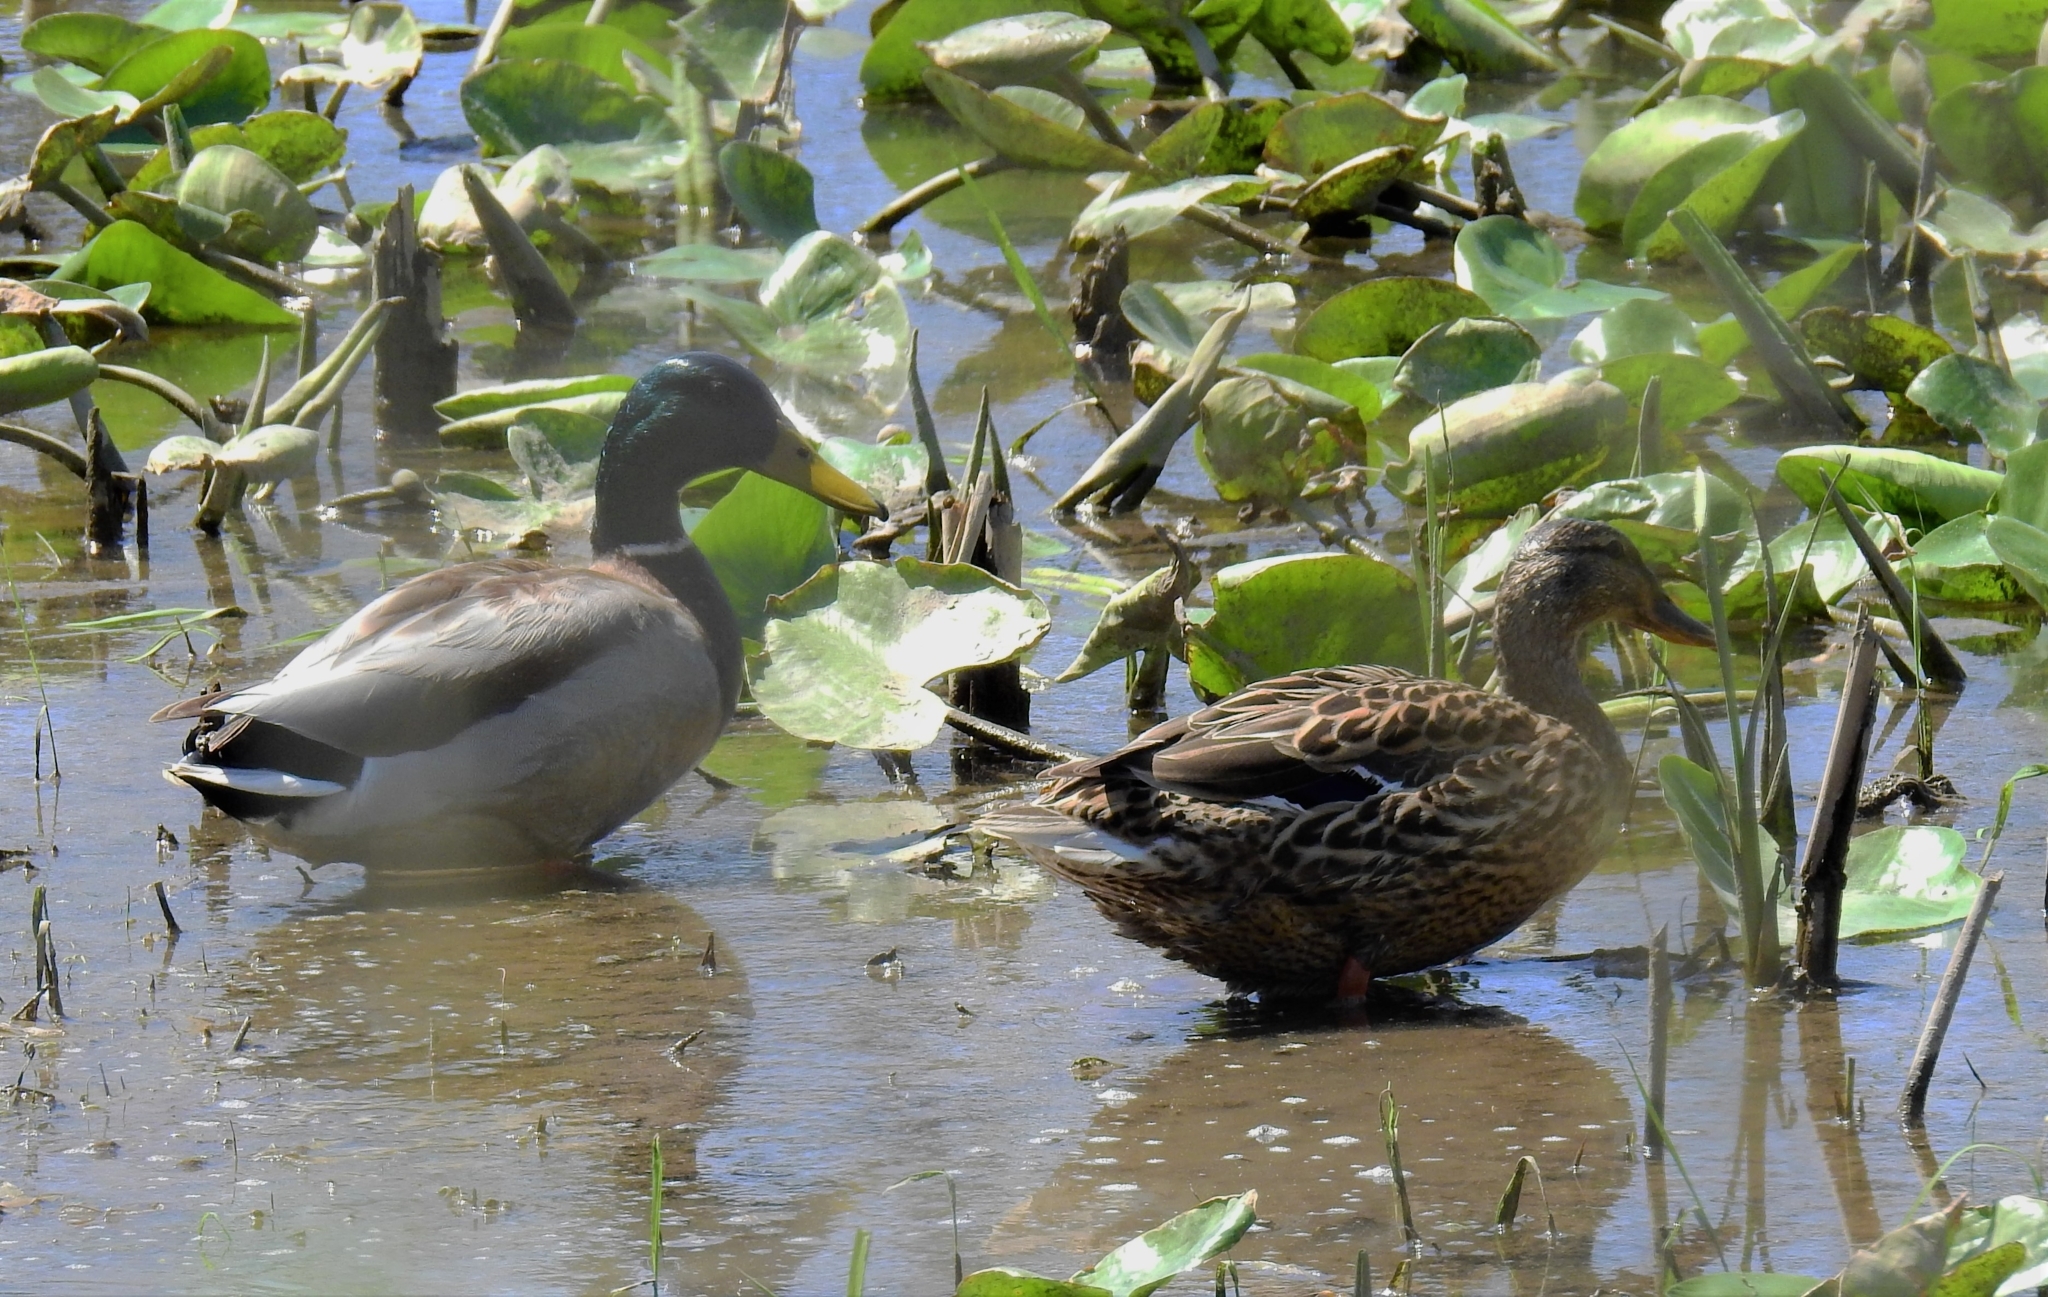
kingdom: Animalia
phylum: Chordata
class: Aves
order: Anseriformes
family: Anatidae
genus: Anas
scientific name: Anas platyrhynchos
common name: Mallard
